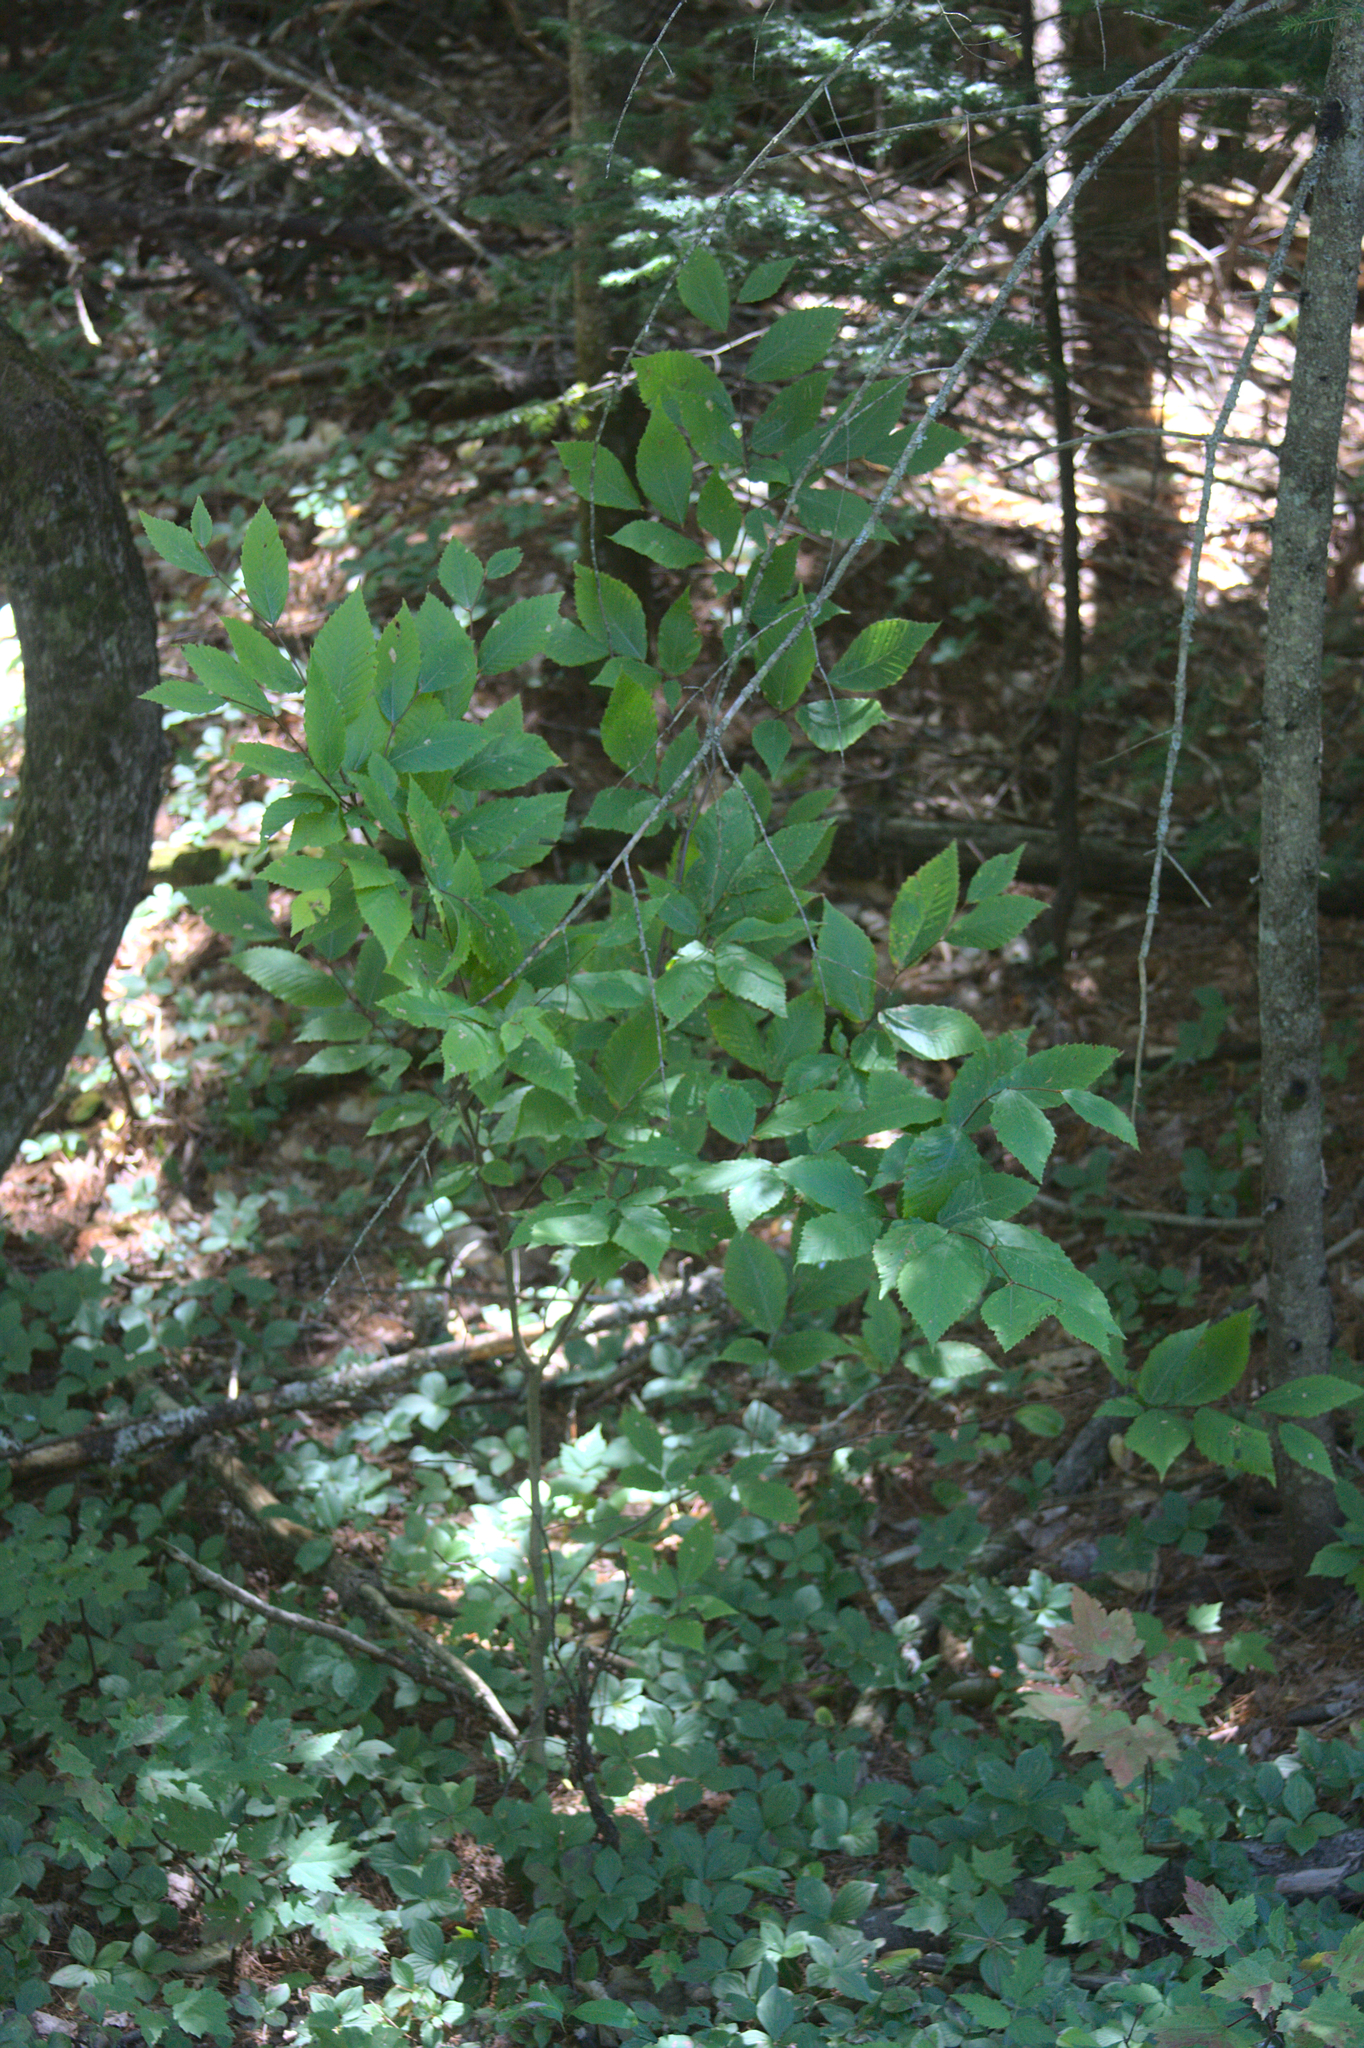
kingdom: Plantae
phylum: Tracheophyta
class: Magnoliopsida
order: Fagales
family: Fagaceae
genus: Fagus
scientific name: Fagus grandifolia
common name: American beech
